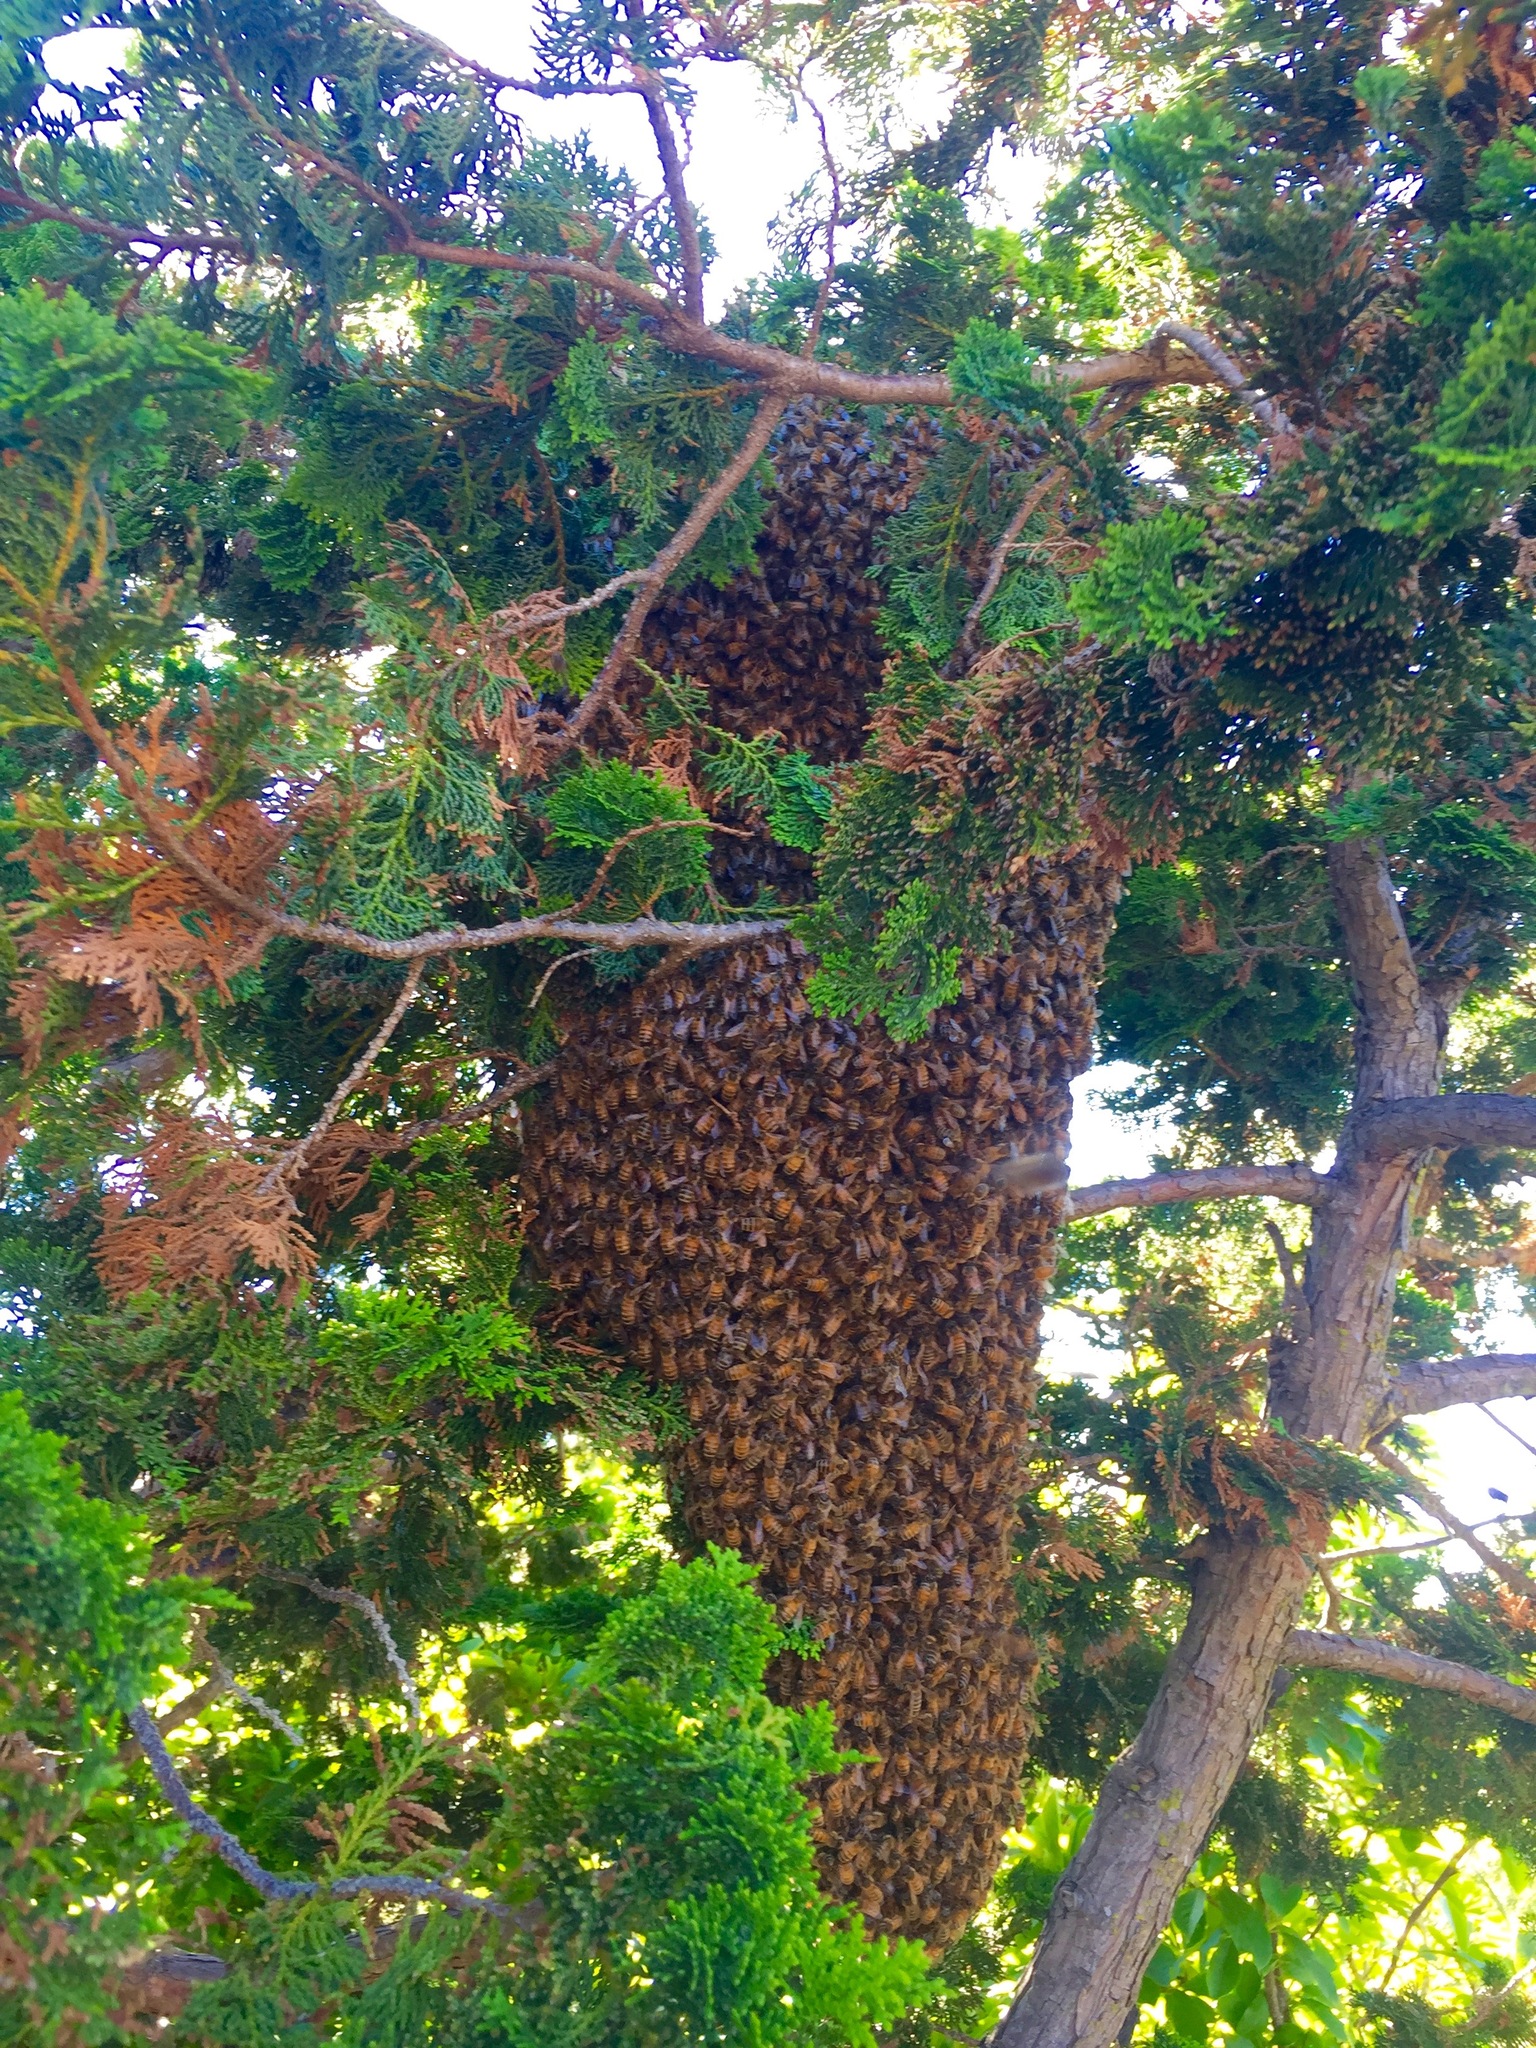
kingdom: Animalia
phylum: Arthropoda
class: Insecta
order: Hymenoptera
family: Apidae
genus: Apis
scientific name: Apis mellifera
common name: Honey bee
